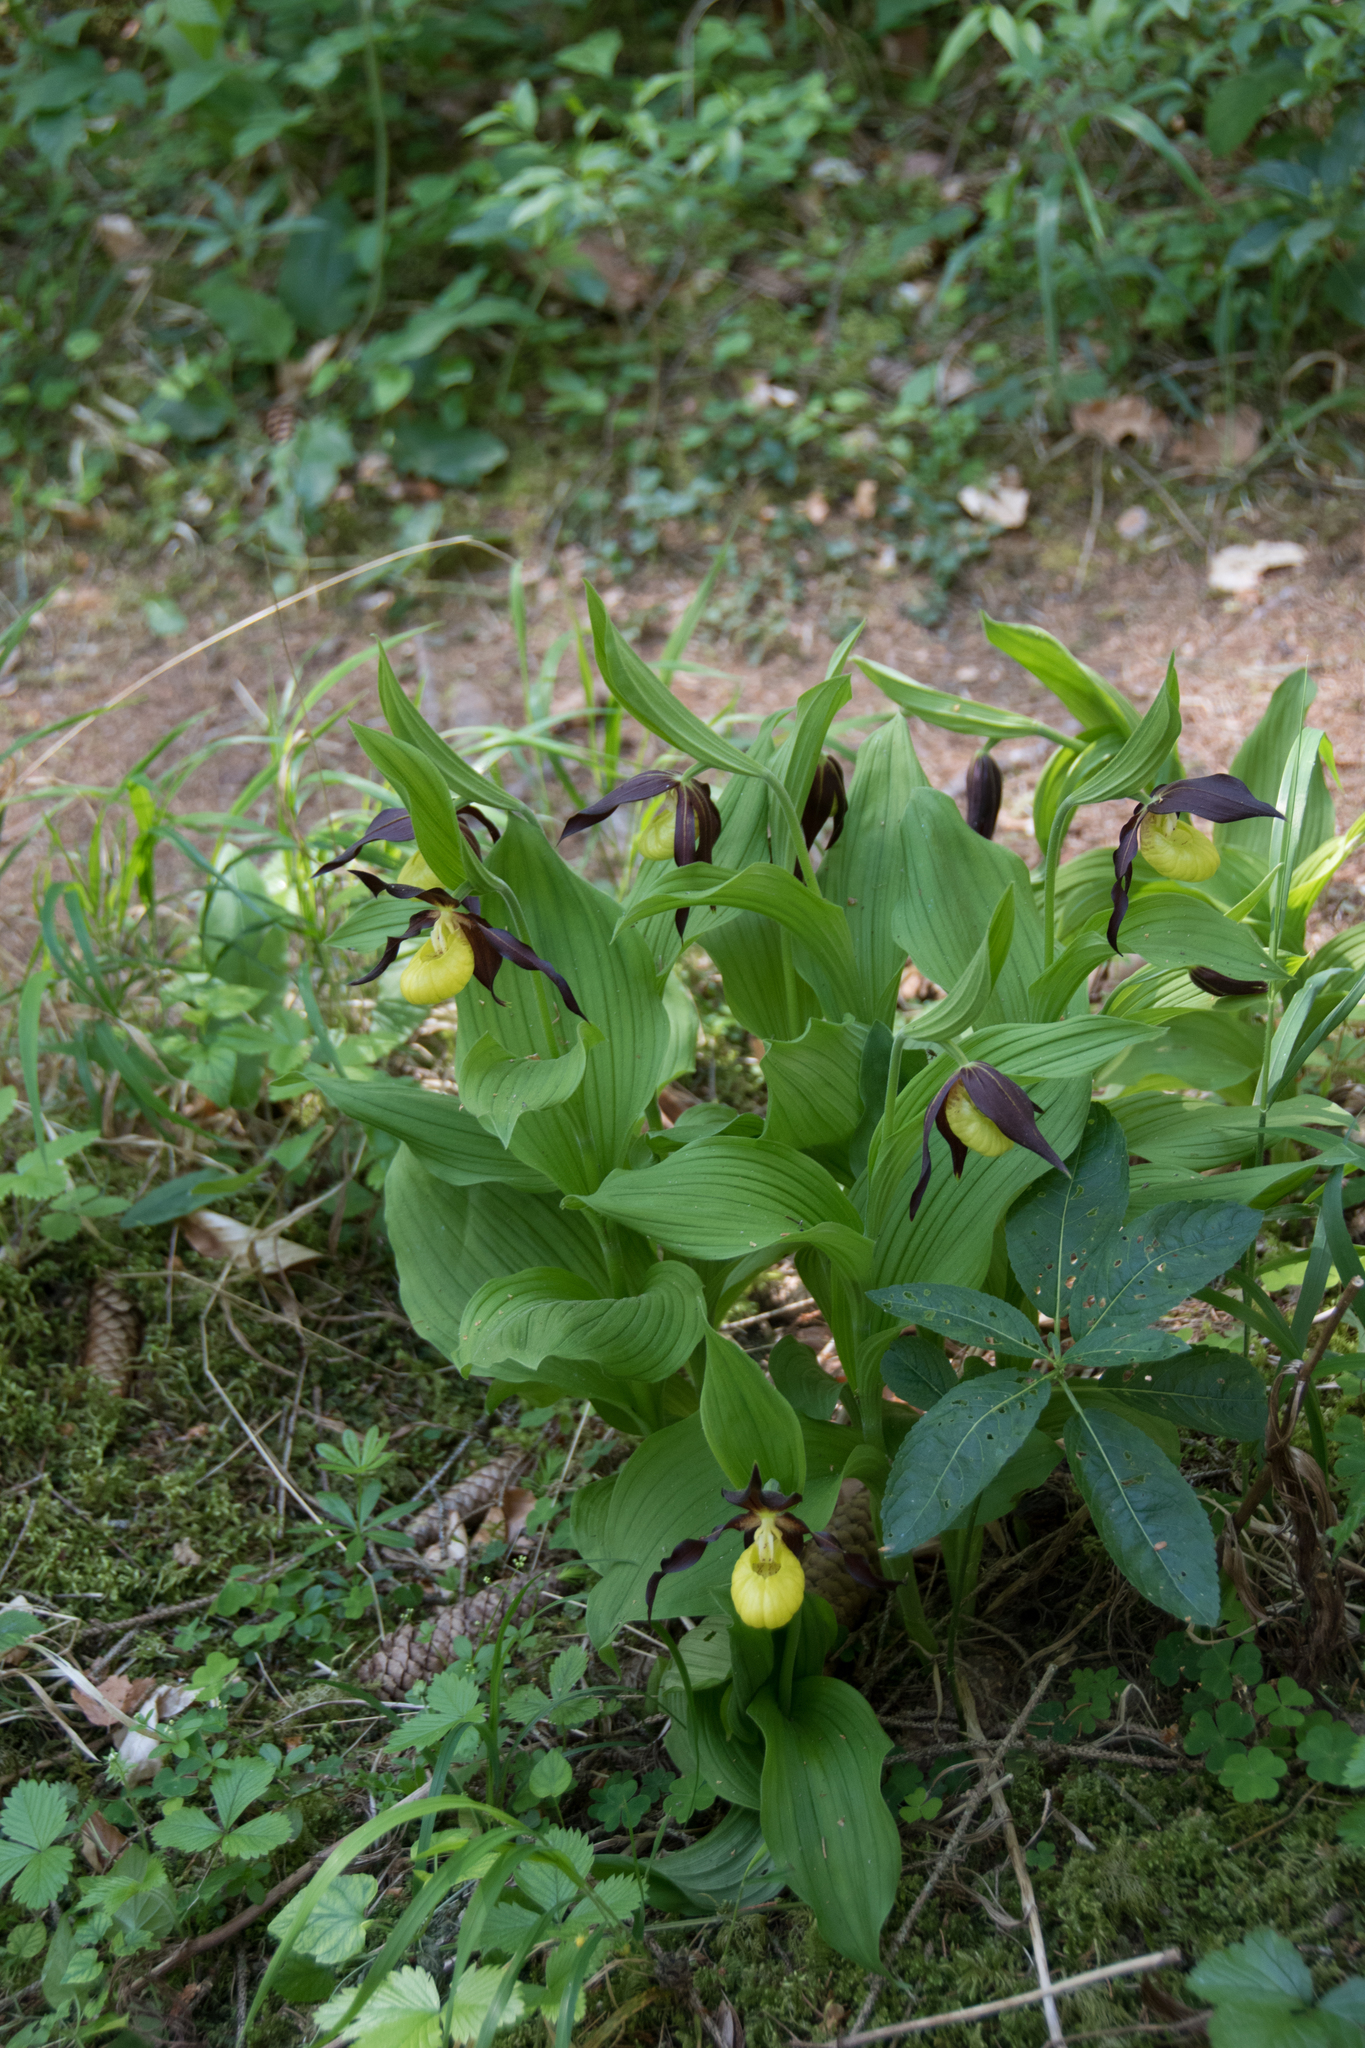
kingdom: Plantae
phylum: Tracheophyta
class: Liliopsida
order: Asparagales
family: Orchidaceae
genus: Cypripedium
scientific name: Cypripedium calceolus
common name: Lady's-slipper
